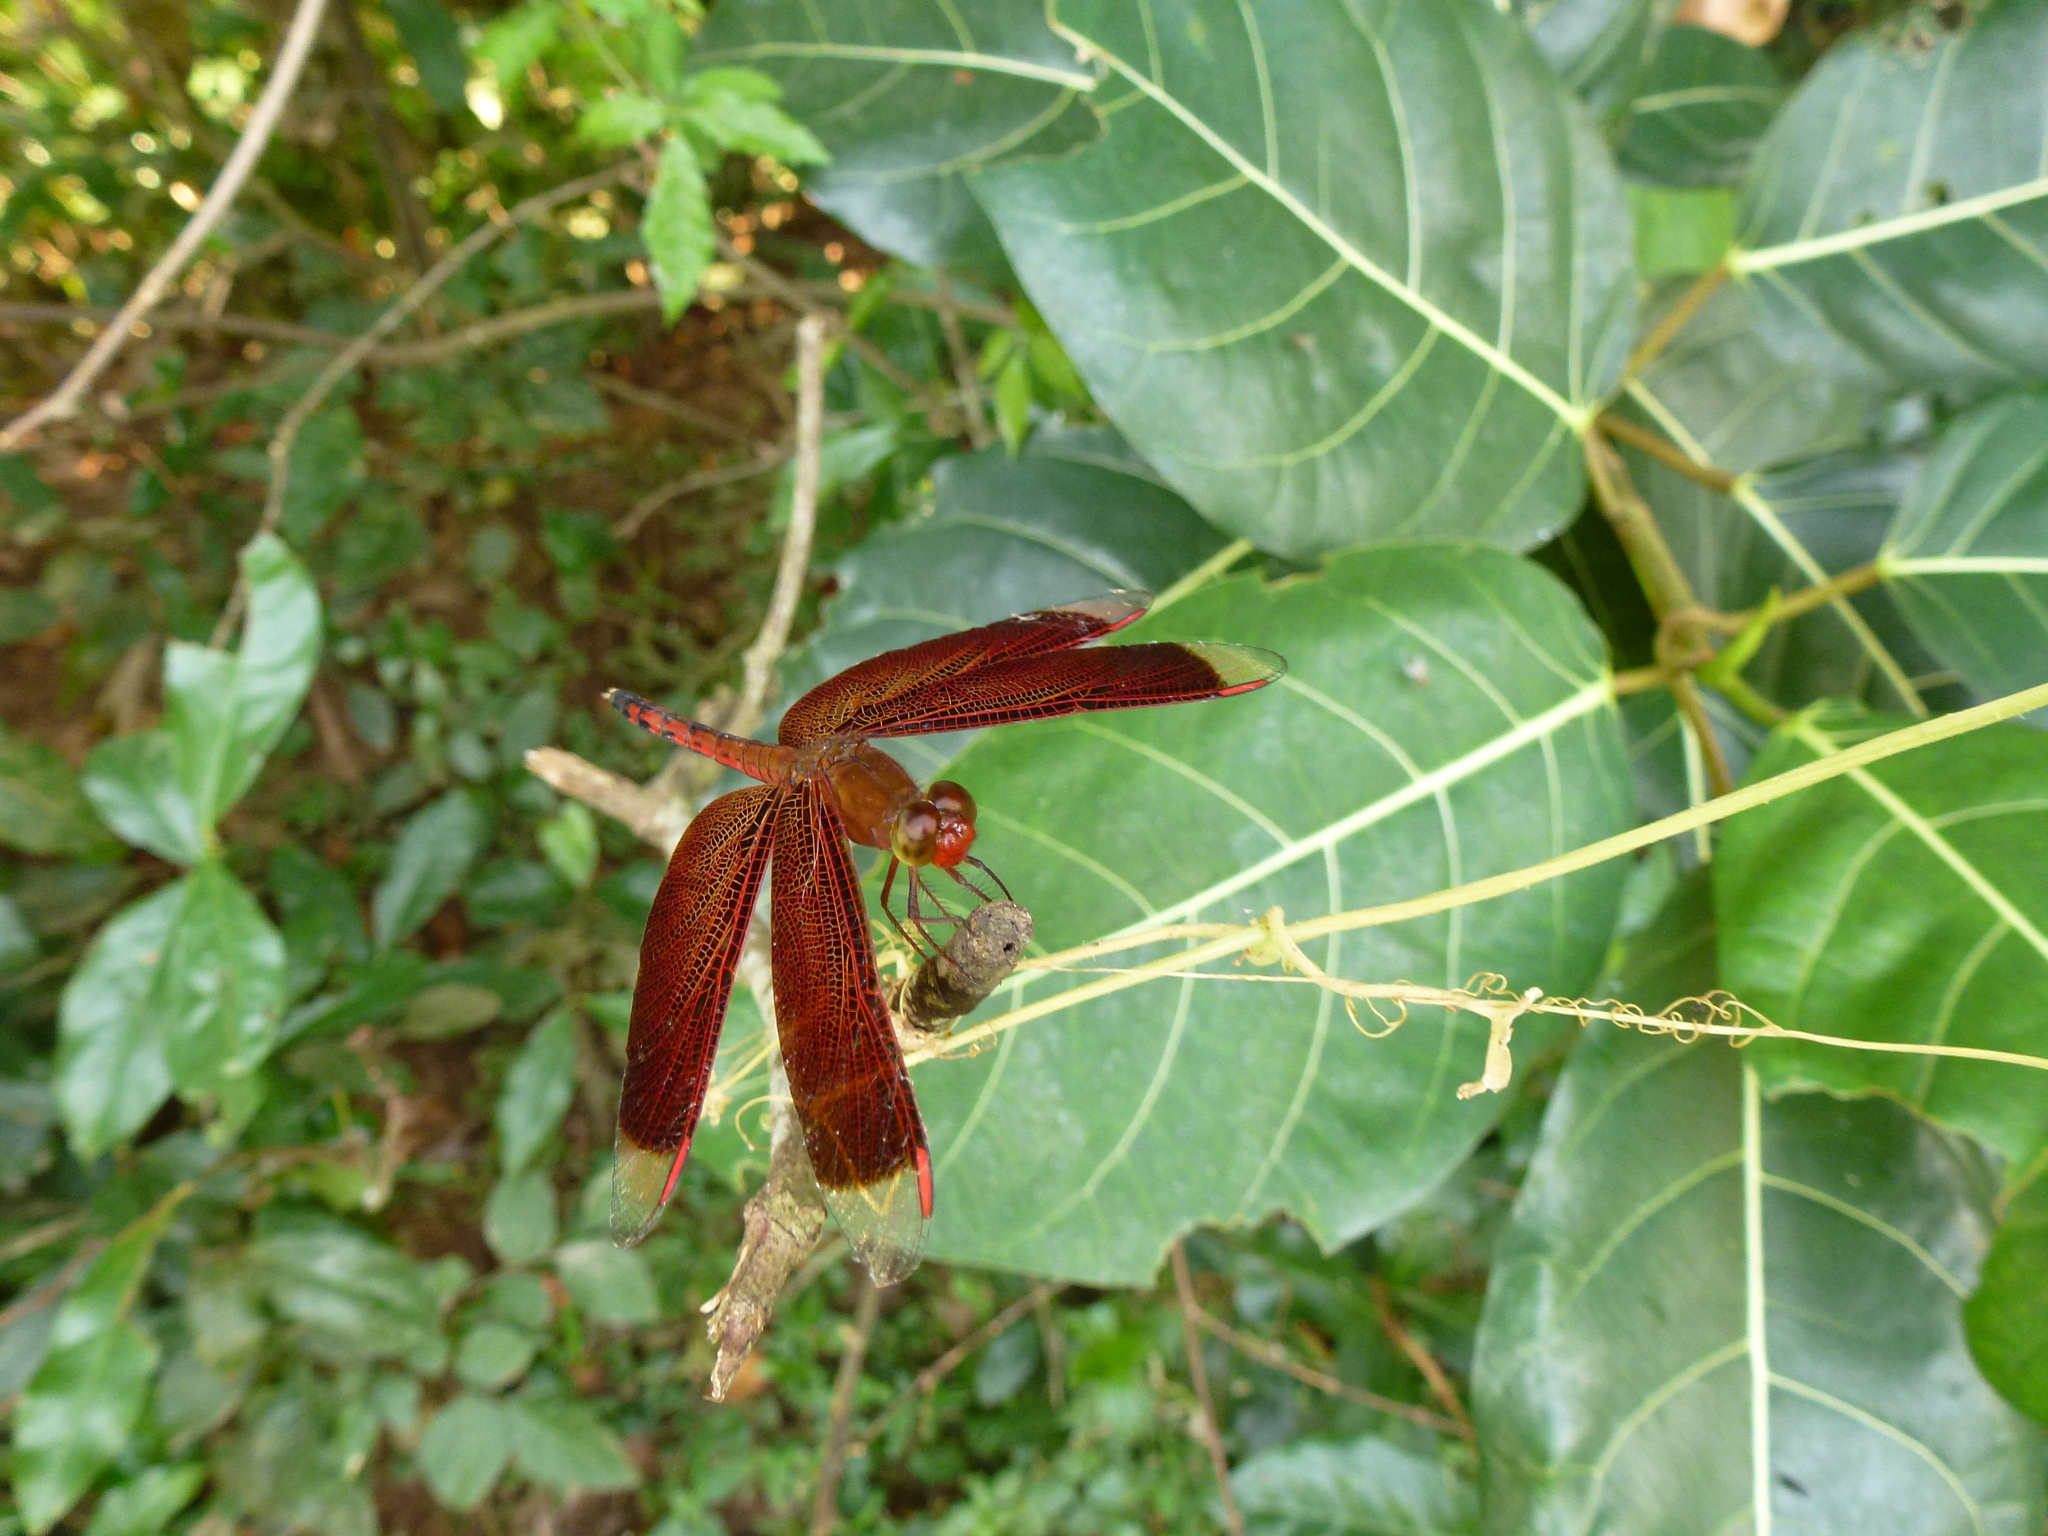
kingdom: Animalia
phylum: Arthropoda
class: Insecta
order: Odonata
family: Libellulidae
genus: Neurothemis
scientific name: Neurothemis terminata
